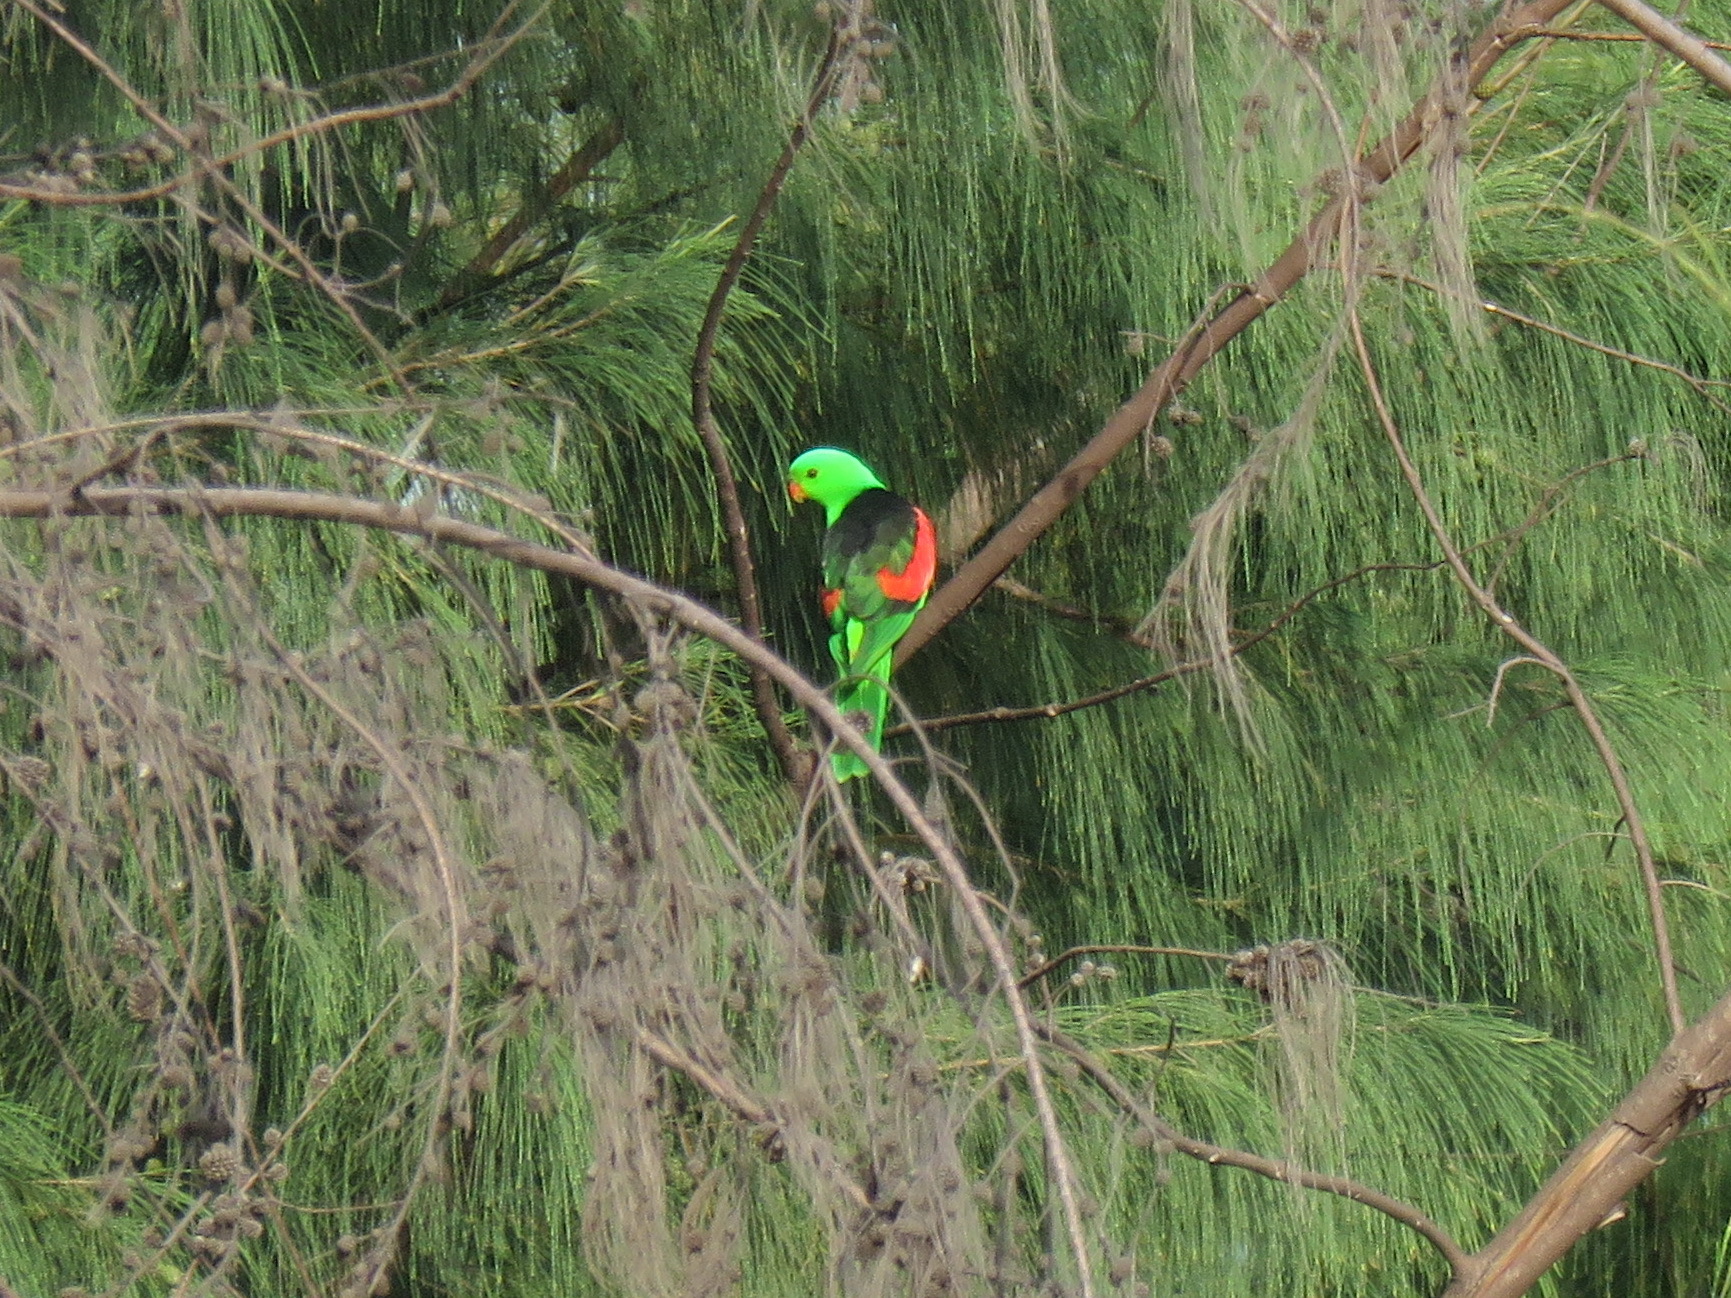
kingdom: Animalia
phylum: Chordata
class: Aves
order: Psittaciformes
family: Psittacidae
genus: Aprosmictus
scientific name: Aprosmictus erythropterus
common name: Red-winged parrot
